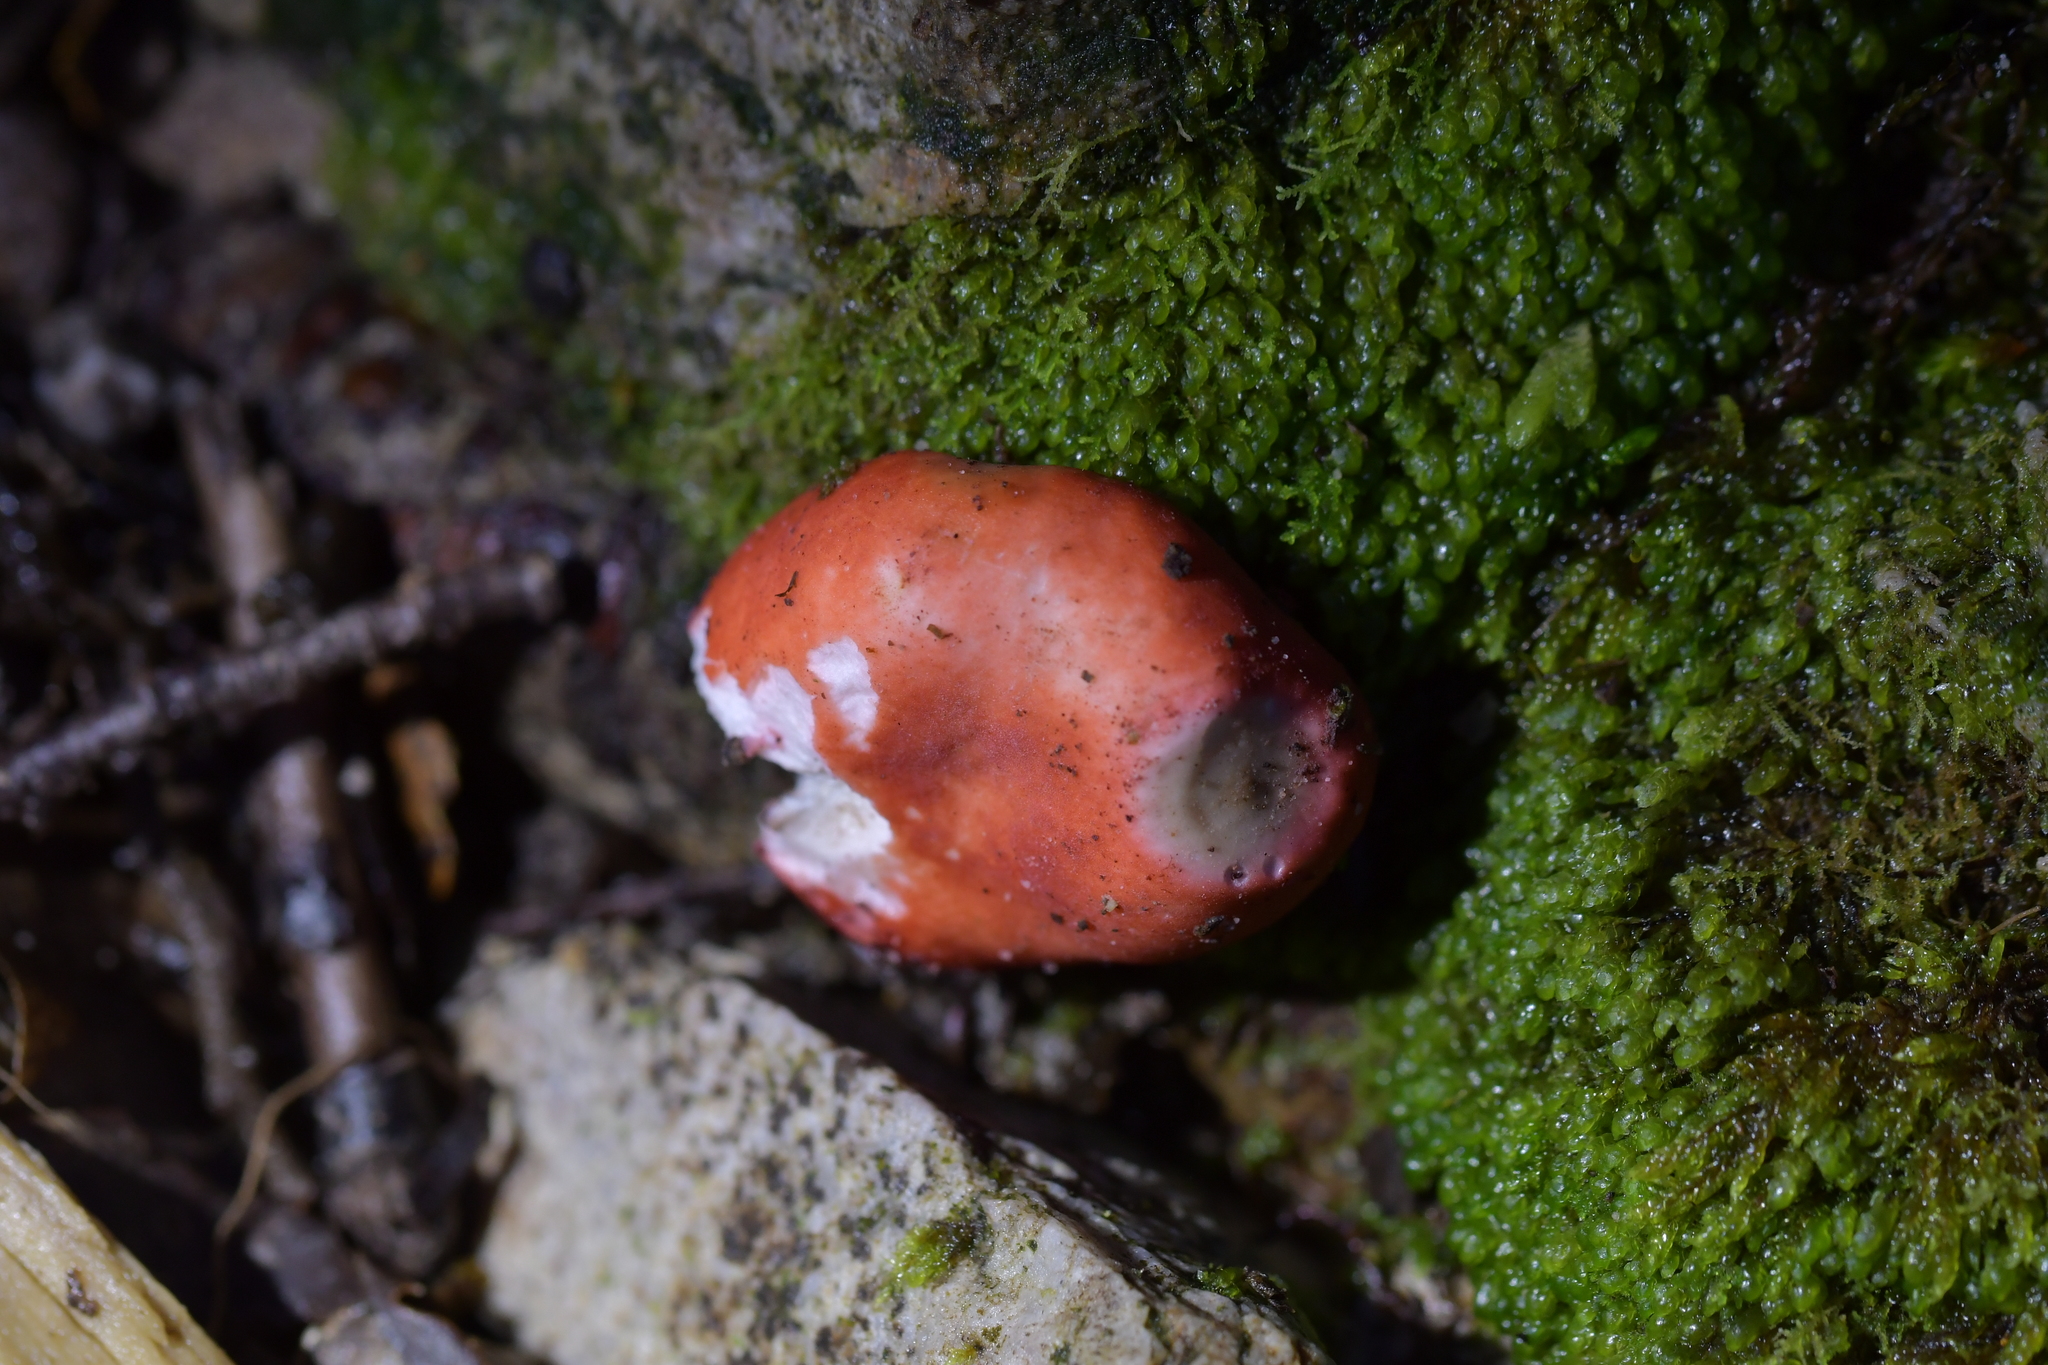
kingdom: Fungi
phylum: Basidiomycota
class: Agaricomycetes
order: Russulales
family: Russulaceae
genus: Russula
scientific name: Russula kermesina
